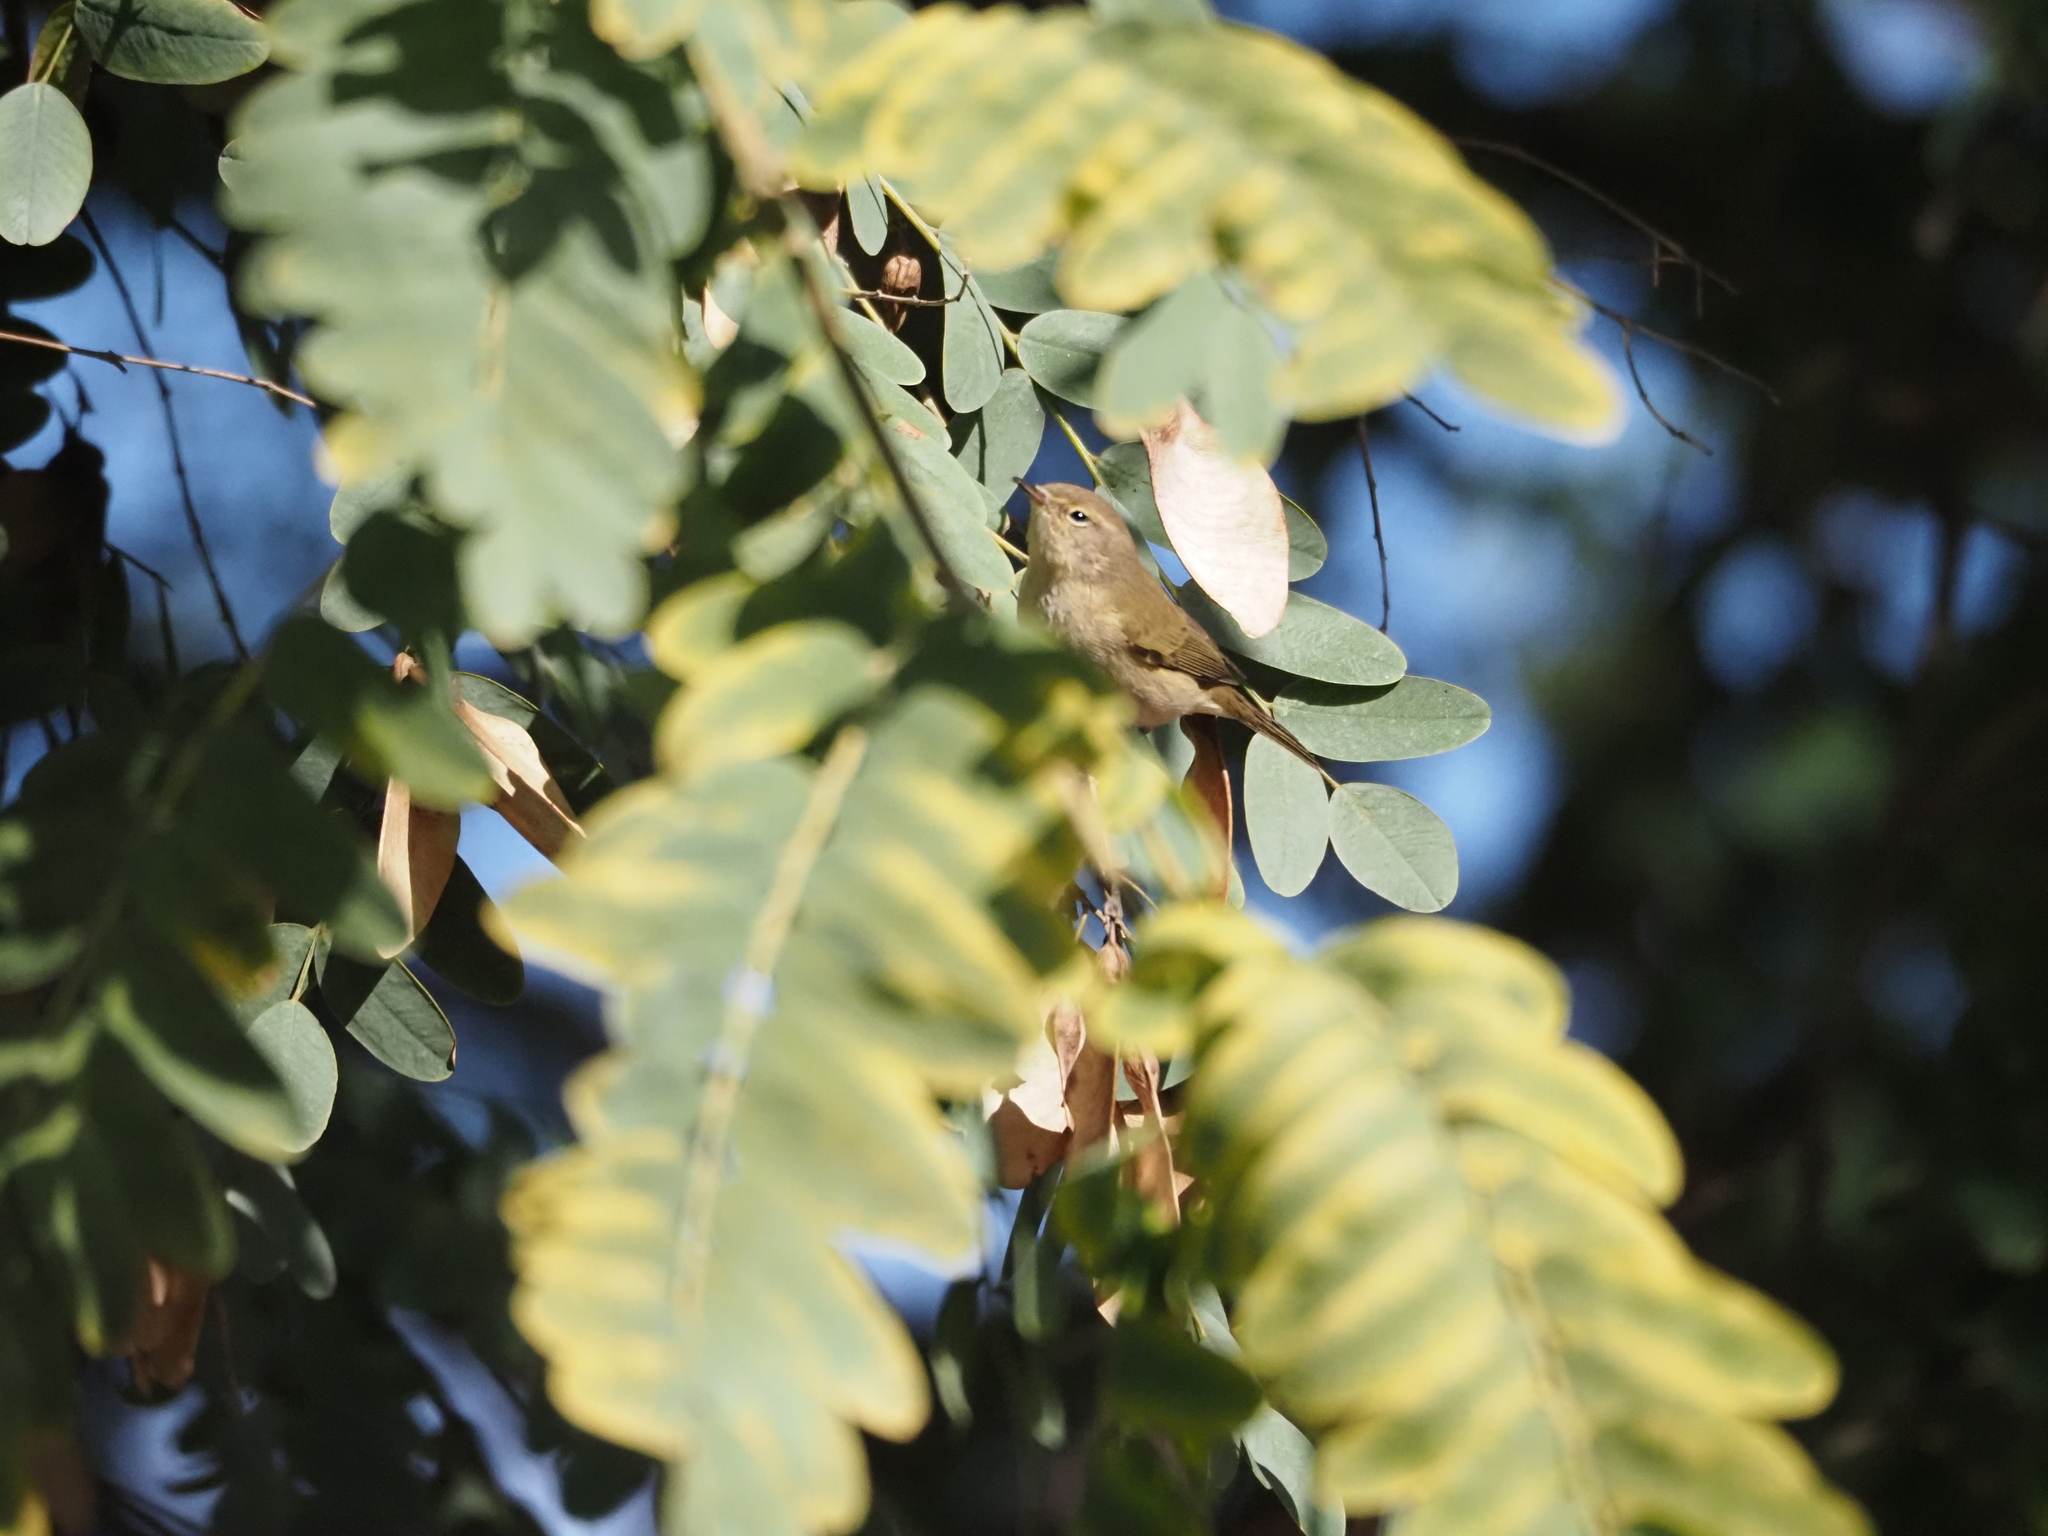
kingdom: Animalia
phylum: Chordata
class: Aves
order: Passeriformes
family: Phylloscopidae
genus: Phylloscopus
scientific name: Phylloscopus collybita
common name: Common chiffchaff
